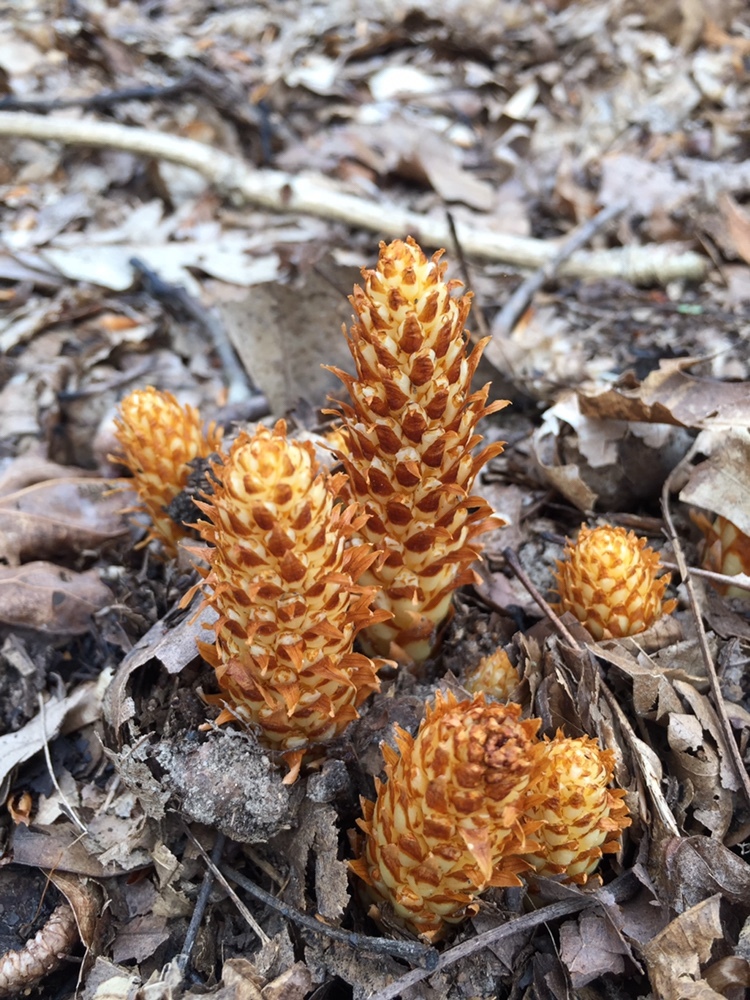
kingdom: Plantae
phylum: Tracheophyta
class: Magnoliopsida
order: Lamiales
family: Orobanchaceae
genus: Conopholis
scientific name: Conopholis americana
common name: American cancer-root
